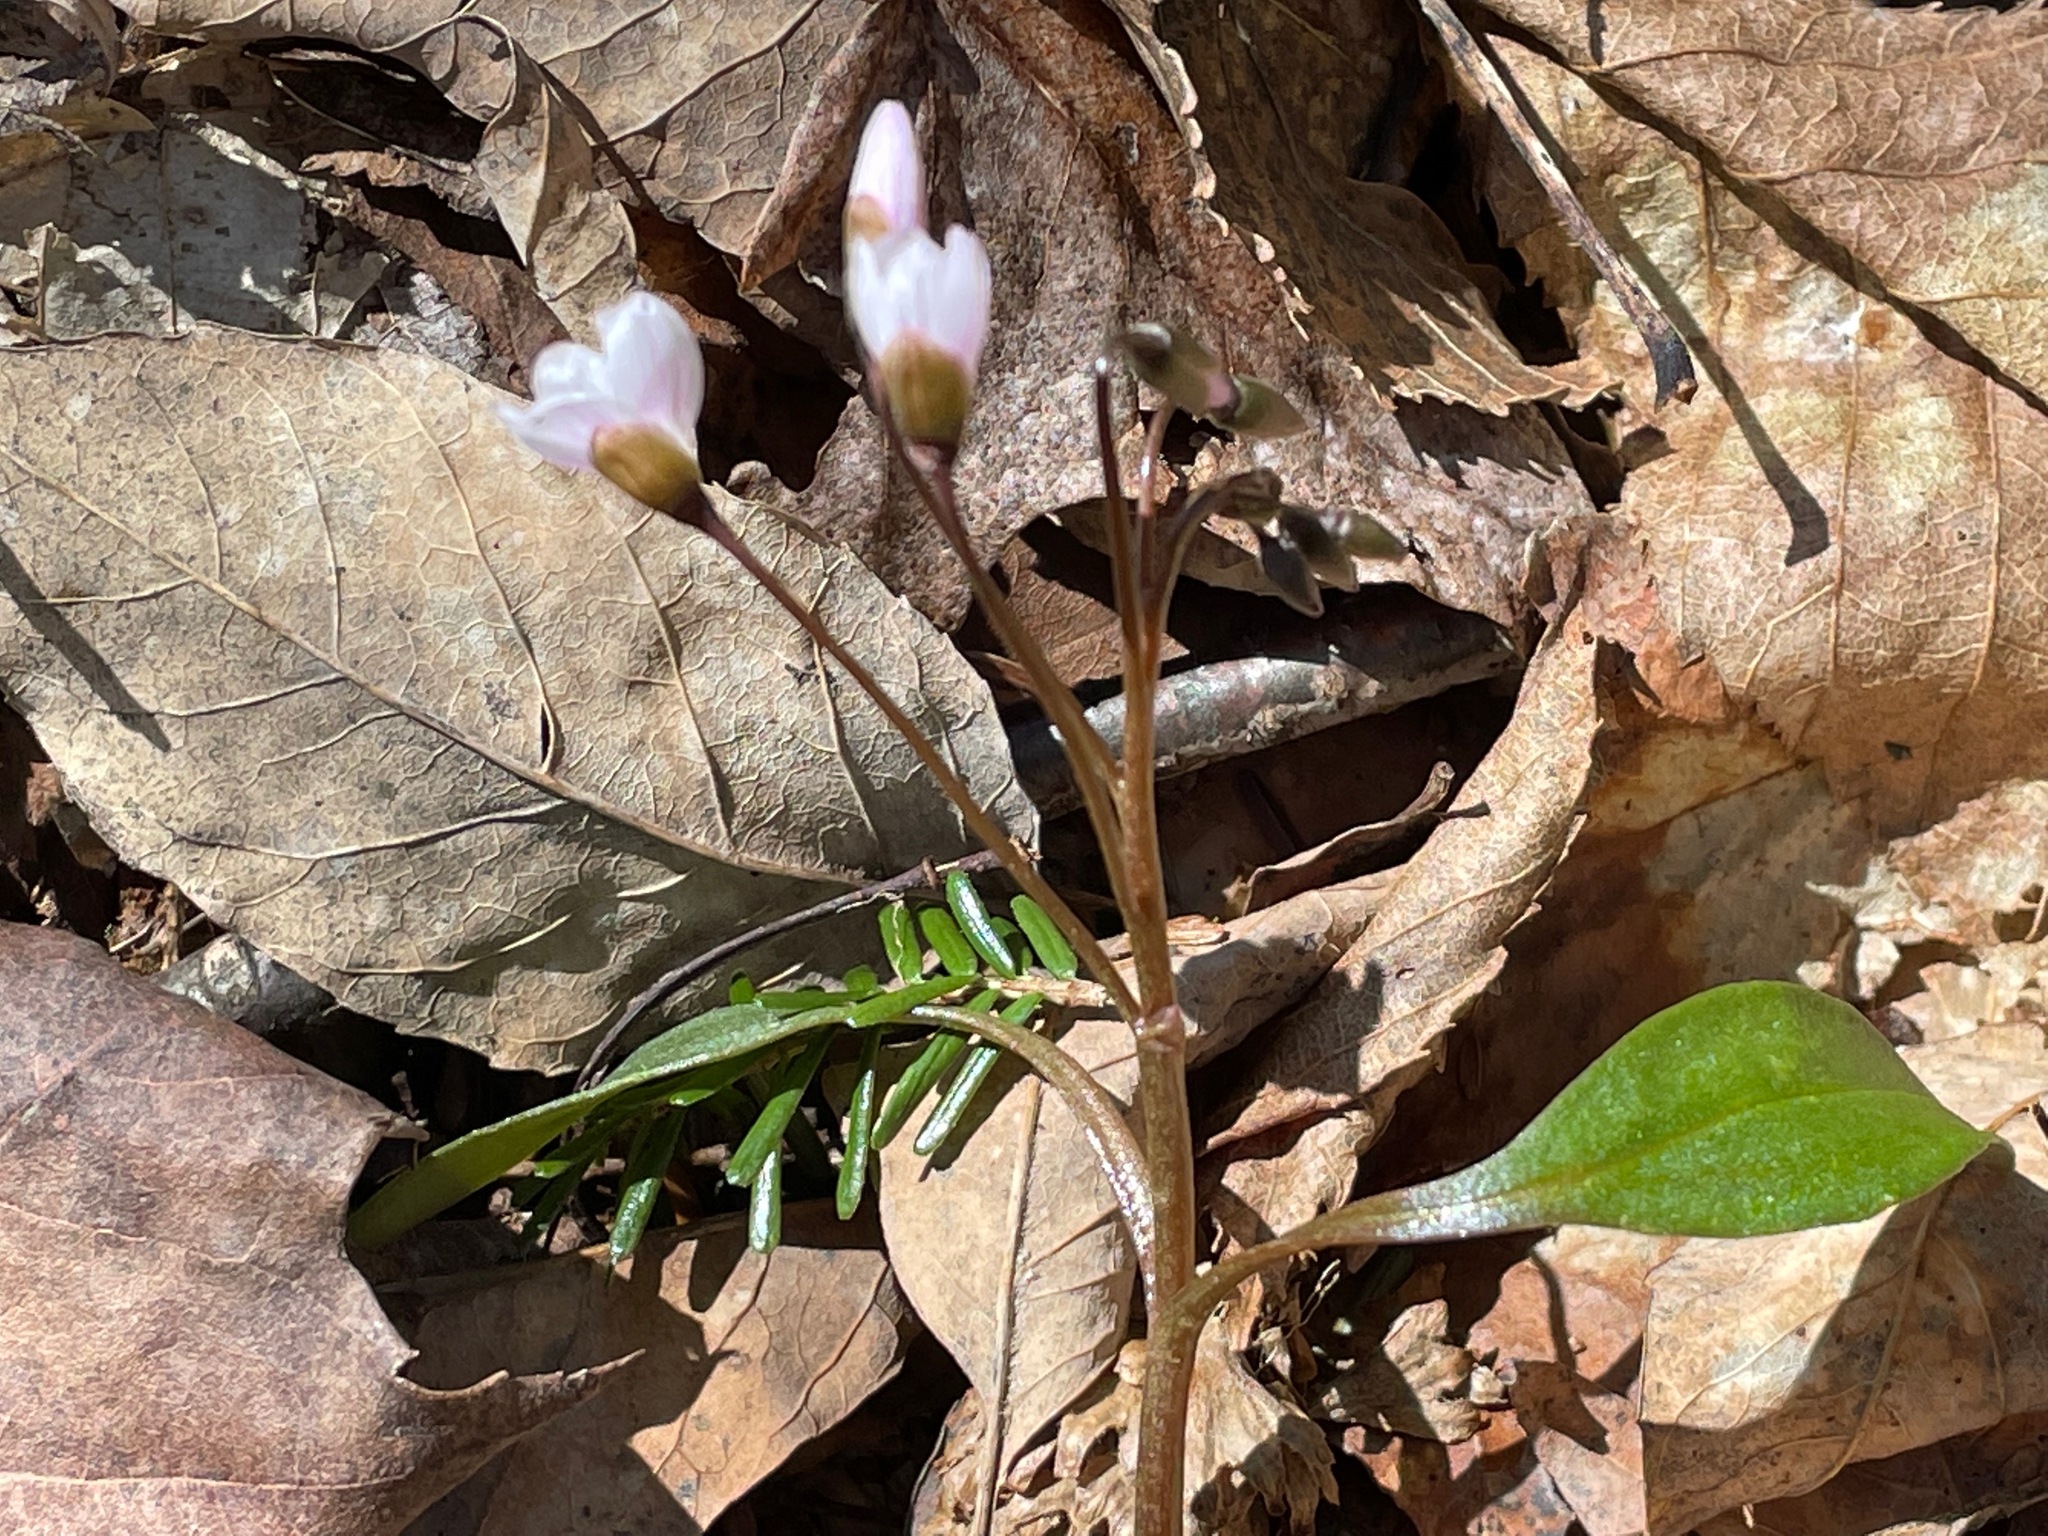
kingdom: Plantae
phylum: Tracheophyta
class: Magnoliopsida
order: Caryophyllales
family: Montiaceae
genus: Claytonia
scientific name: Claytonia caroliniana
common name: Carolina spring beauty
